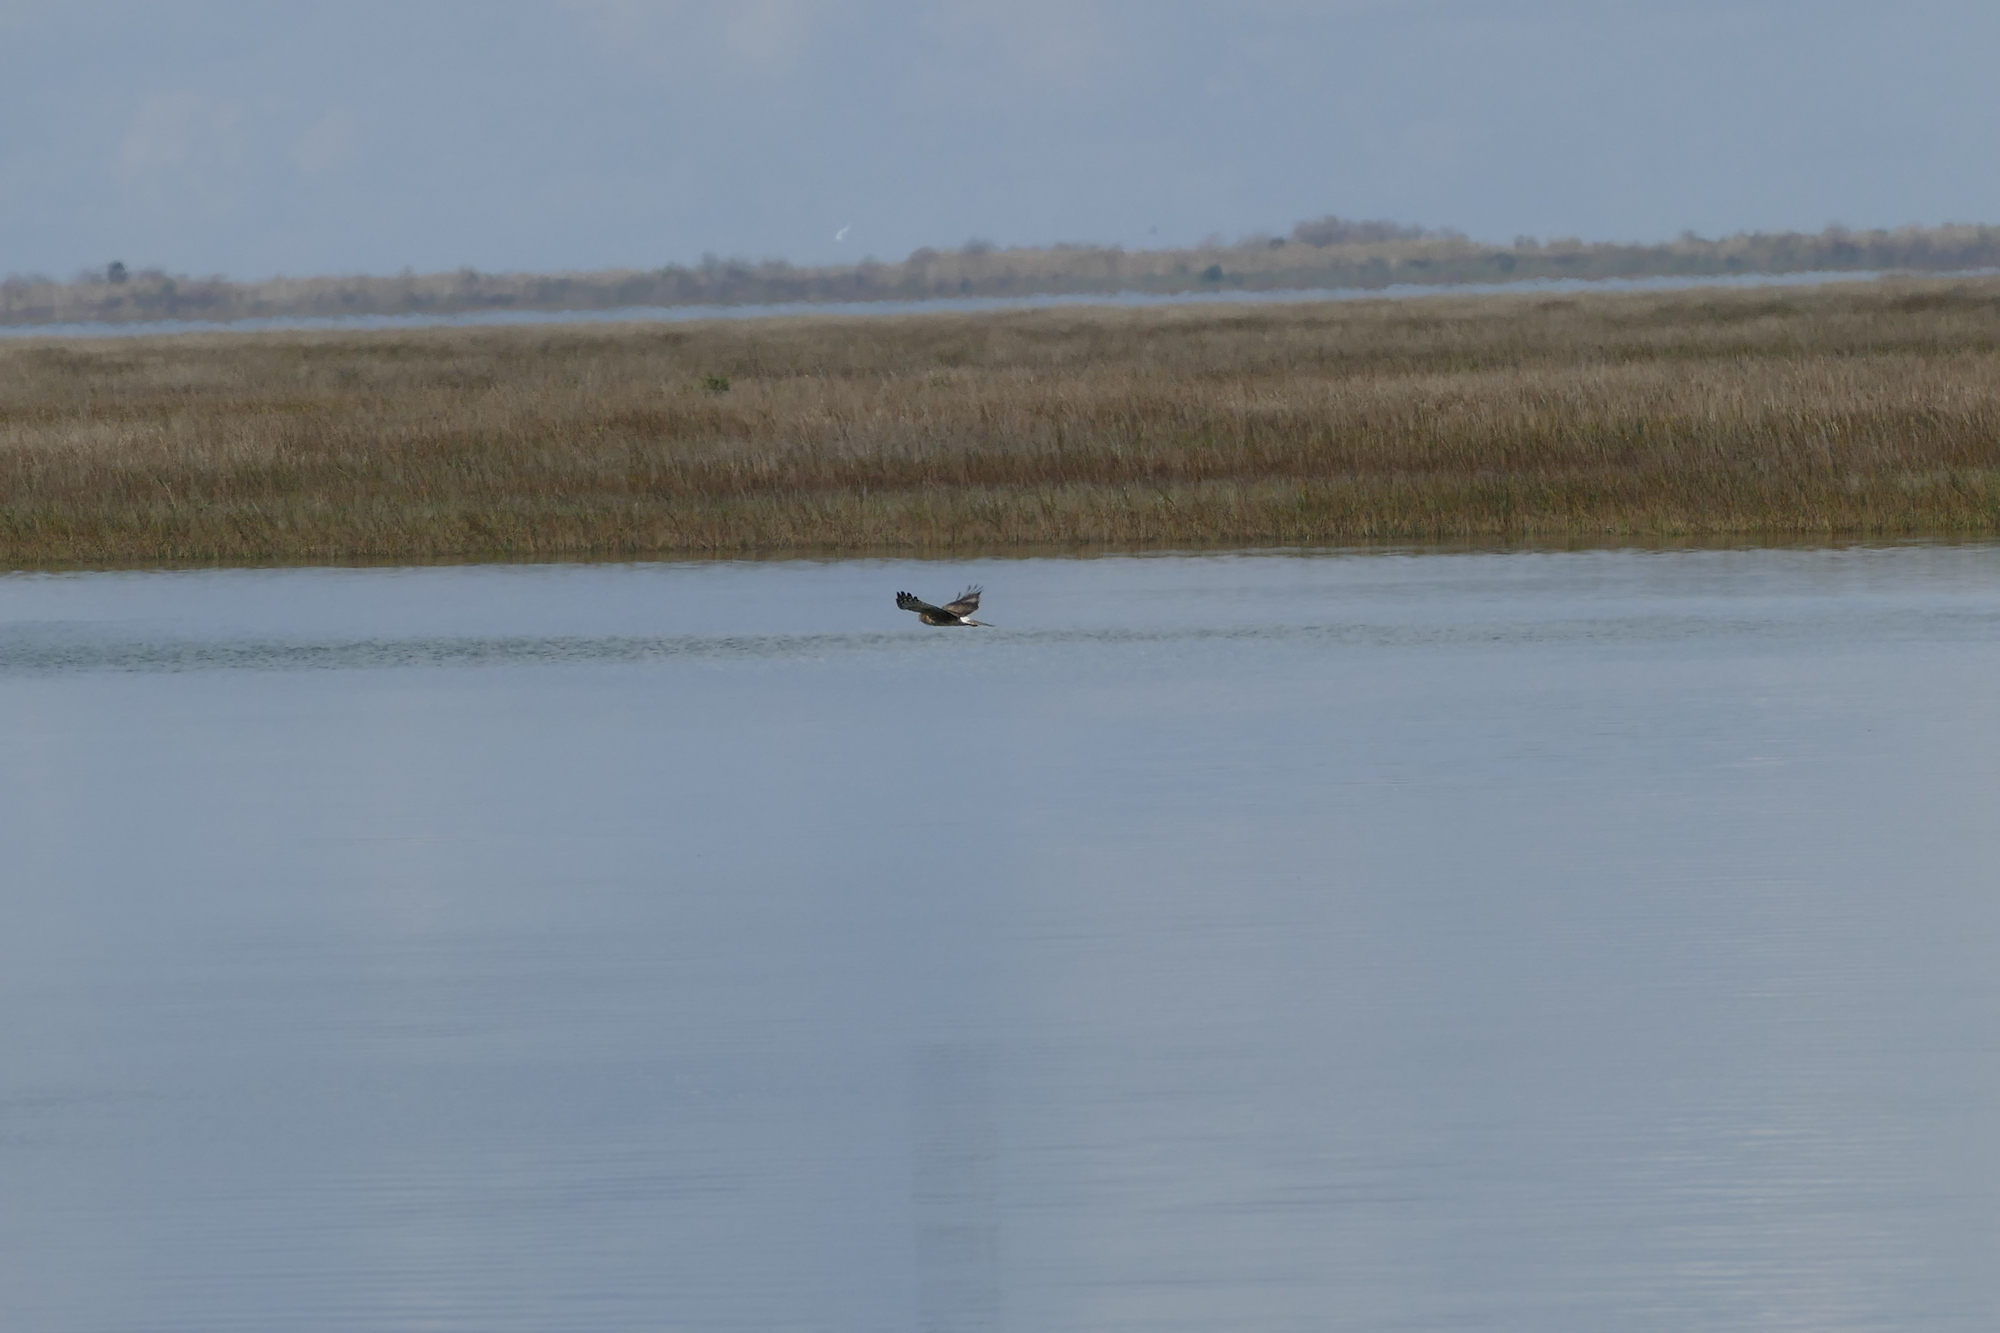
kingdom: Animalia
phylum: Chordata
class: Aves
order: Accipitriformes
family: Accipitridae
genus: Circus
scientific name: Circus cyaneus
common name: Hen harrier
